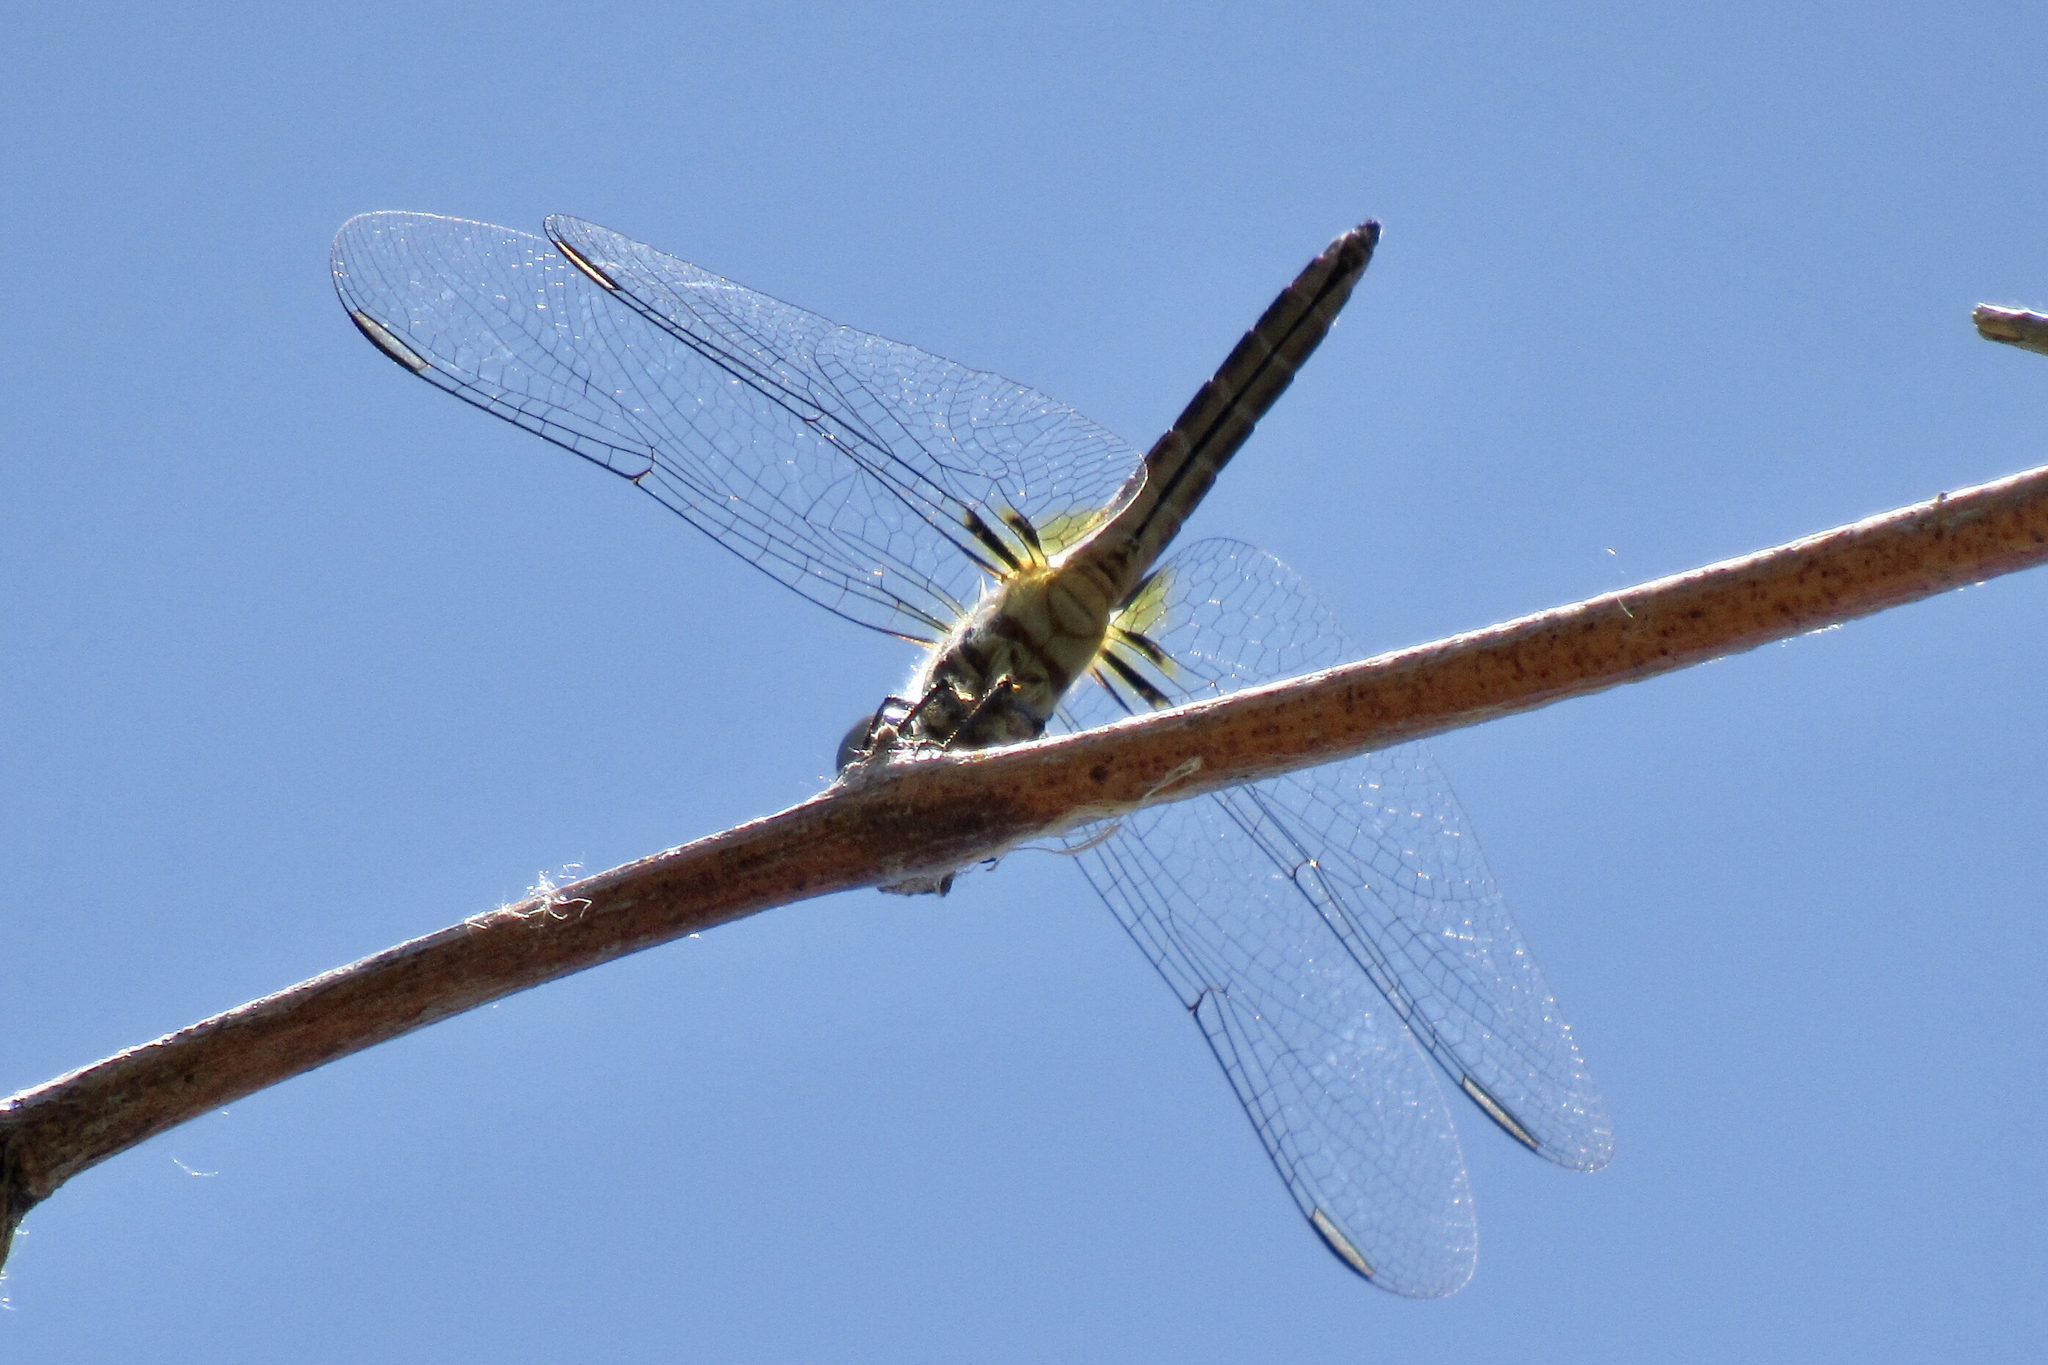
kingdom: Animalia
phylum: Arthropoda
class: Insecta
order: Odonata
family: Libellulidae
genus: Pachydiplax
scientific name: Pachydiplax longipennis
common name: Blue dasher
